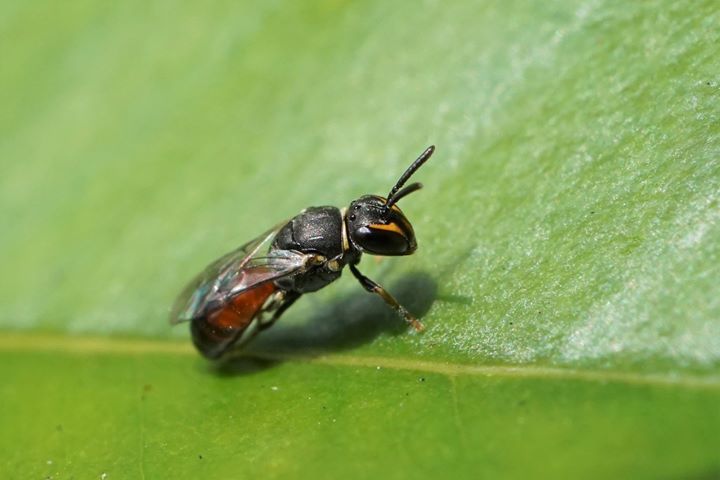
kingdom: Animalia
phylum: Arthropoda
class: Insecta
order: Hymenoptera
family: Colletidae
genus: Hylaeus
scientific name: Hylaeus graenicheri
